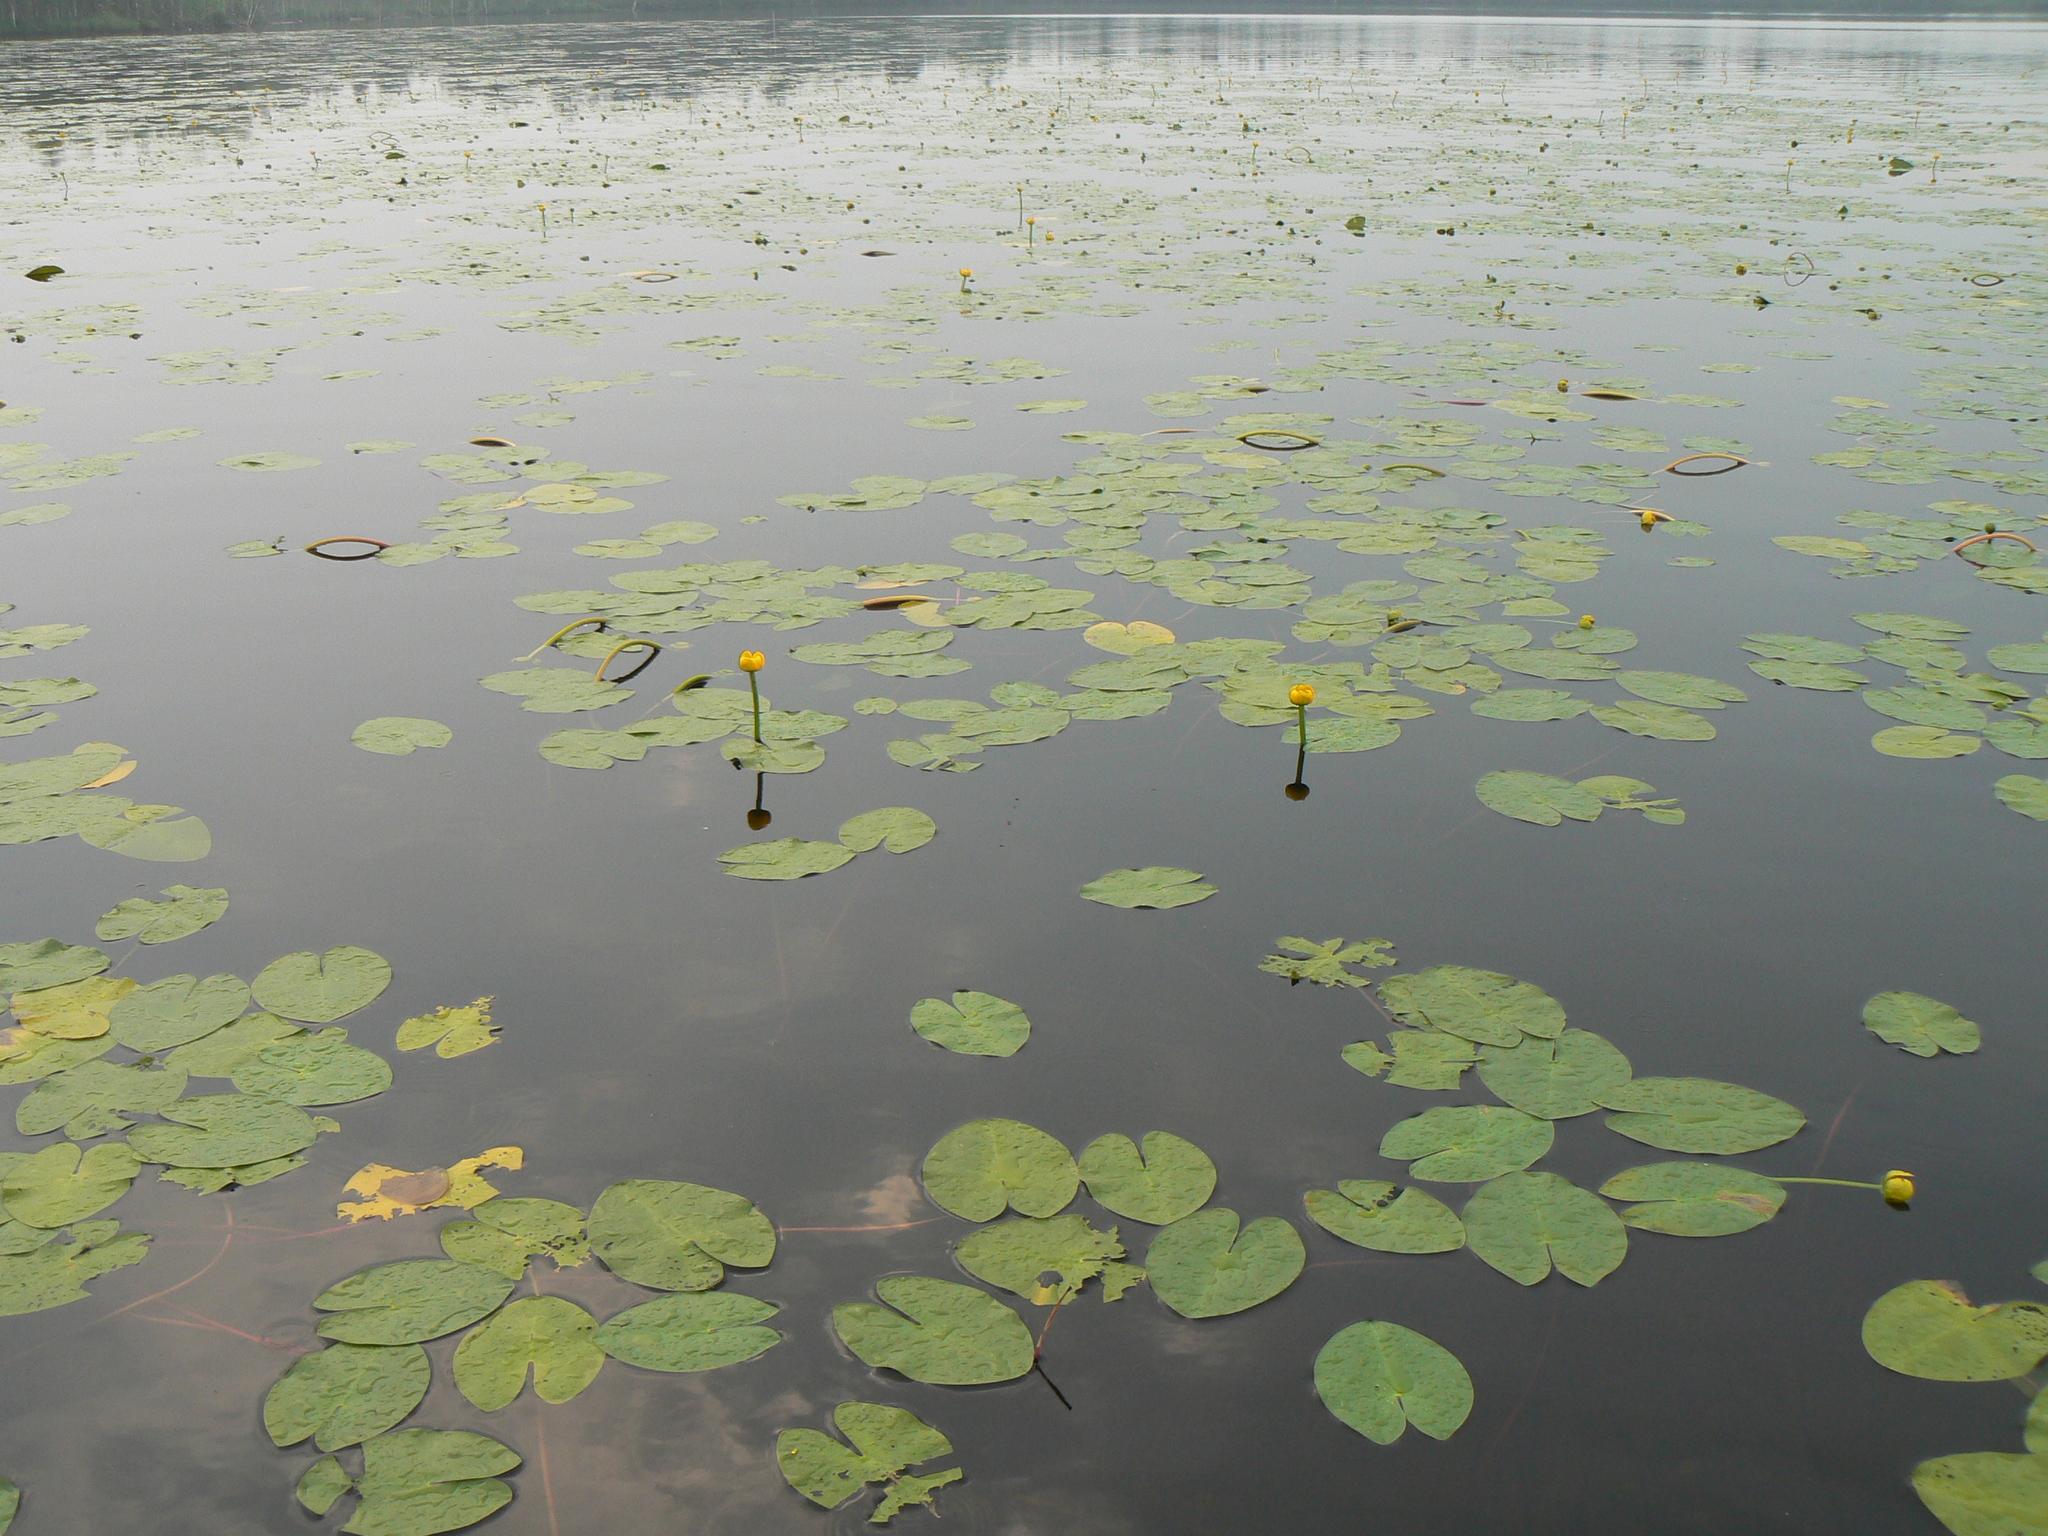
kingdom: Plantae
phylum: Tracheophyta
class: Magnoliopsida
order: Nymphaeales
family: Nymphaeaceae
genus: Nuphar
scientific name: Nuphar lutea
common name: Yellow water-lily
